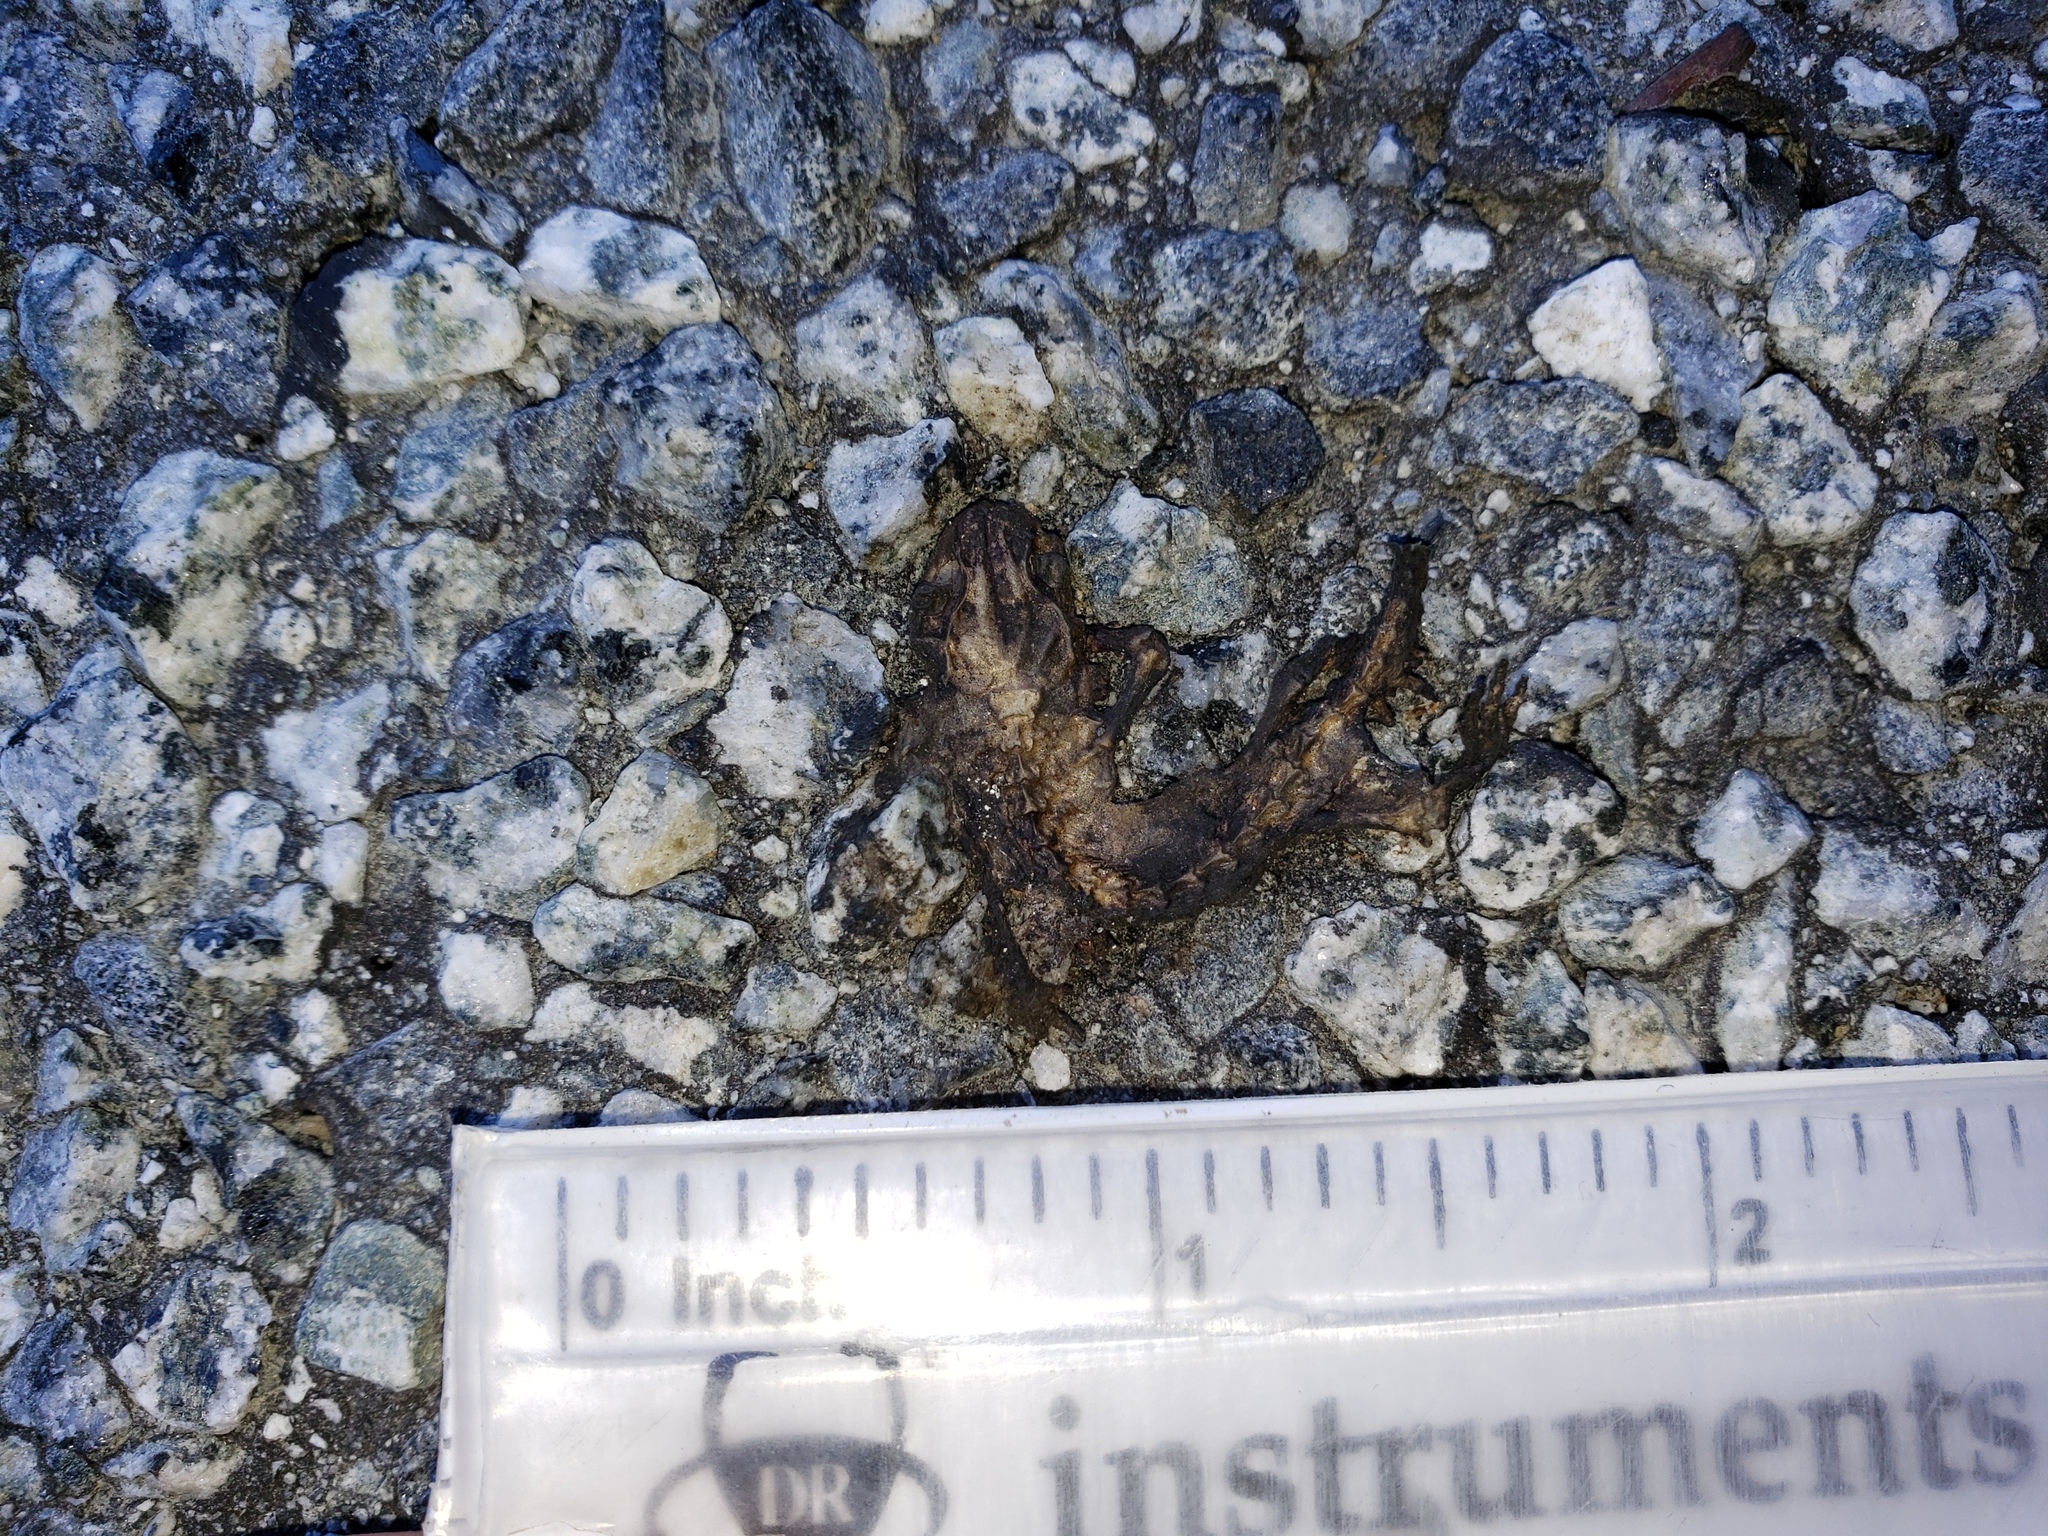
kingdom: Animalia
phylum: Chordata
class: Amphibia
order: Caudata
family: Salamandridae
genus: Taricha
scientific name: Taricha
